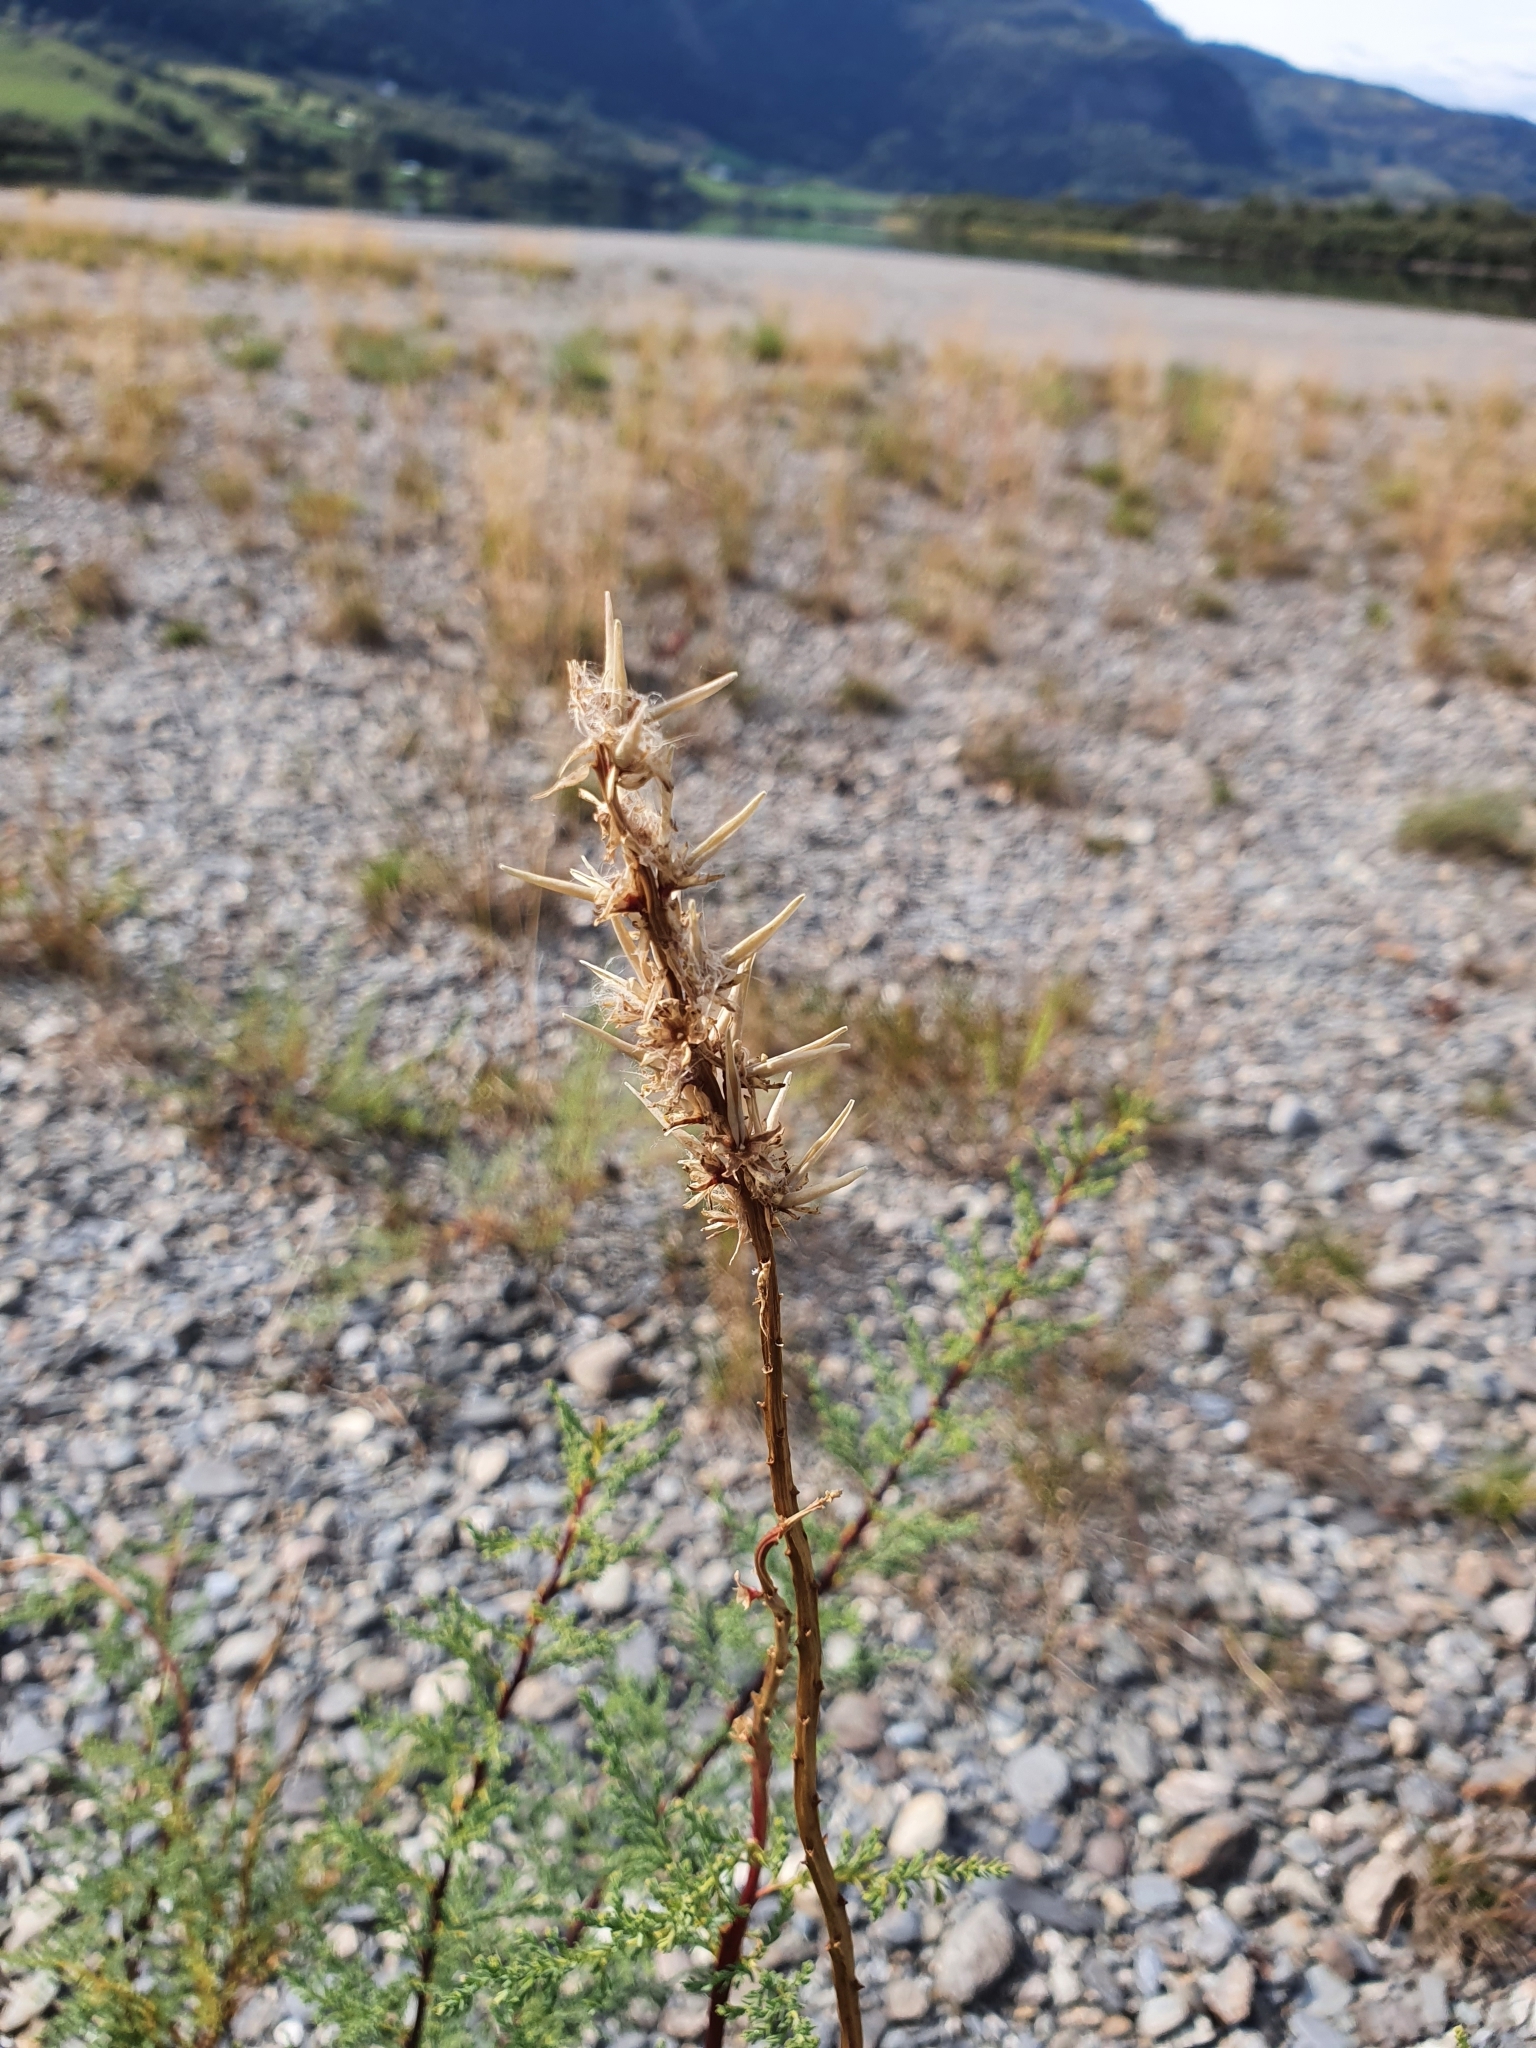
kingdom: Plantae
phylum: Tracheophyta
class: Magnoliopsida
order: Caryophyllales
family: Tamaricaceae
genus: Myricaria
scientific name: Myricaria germanica
